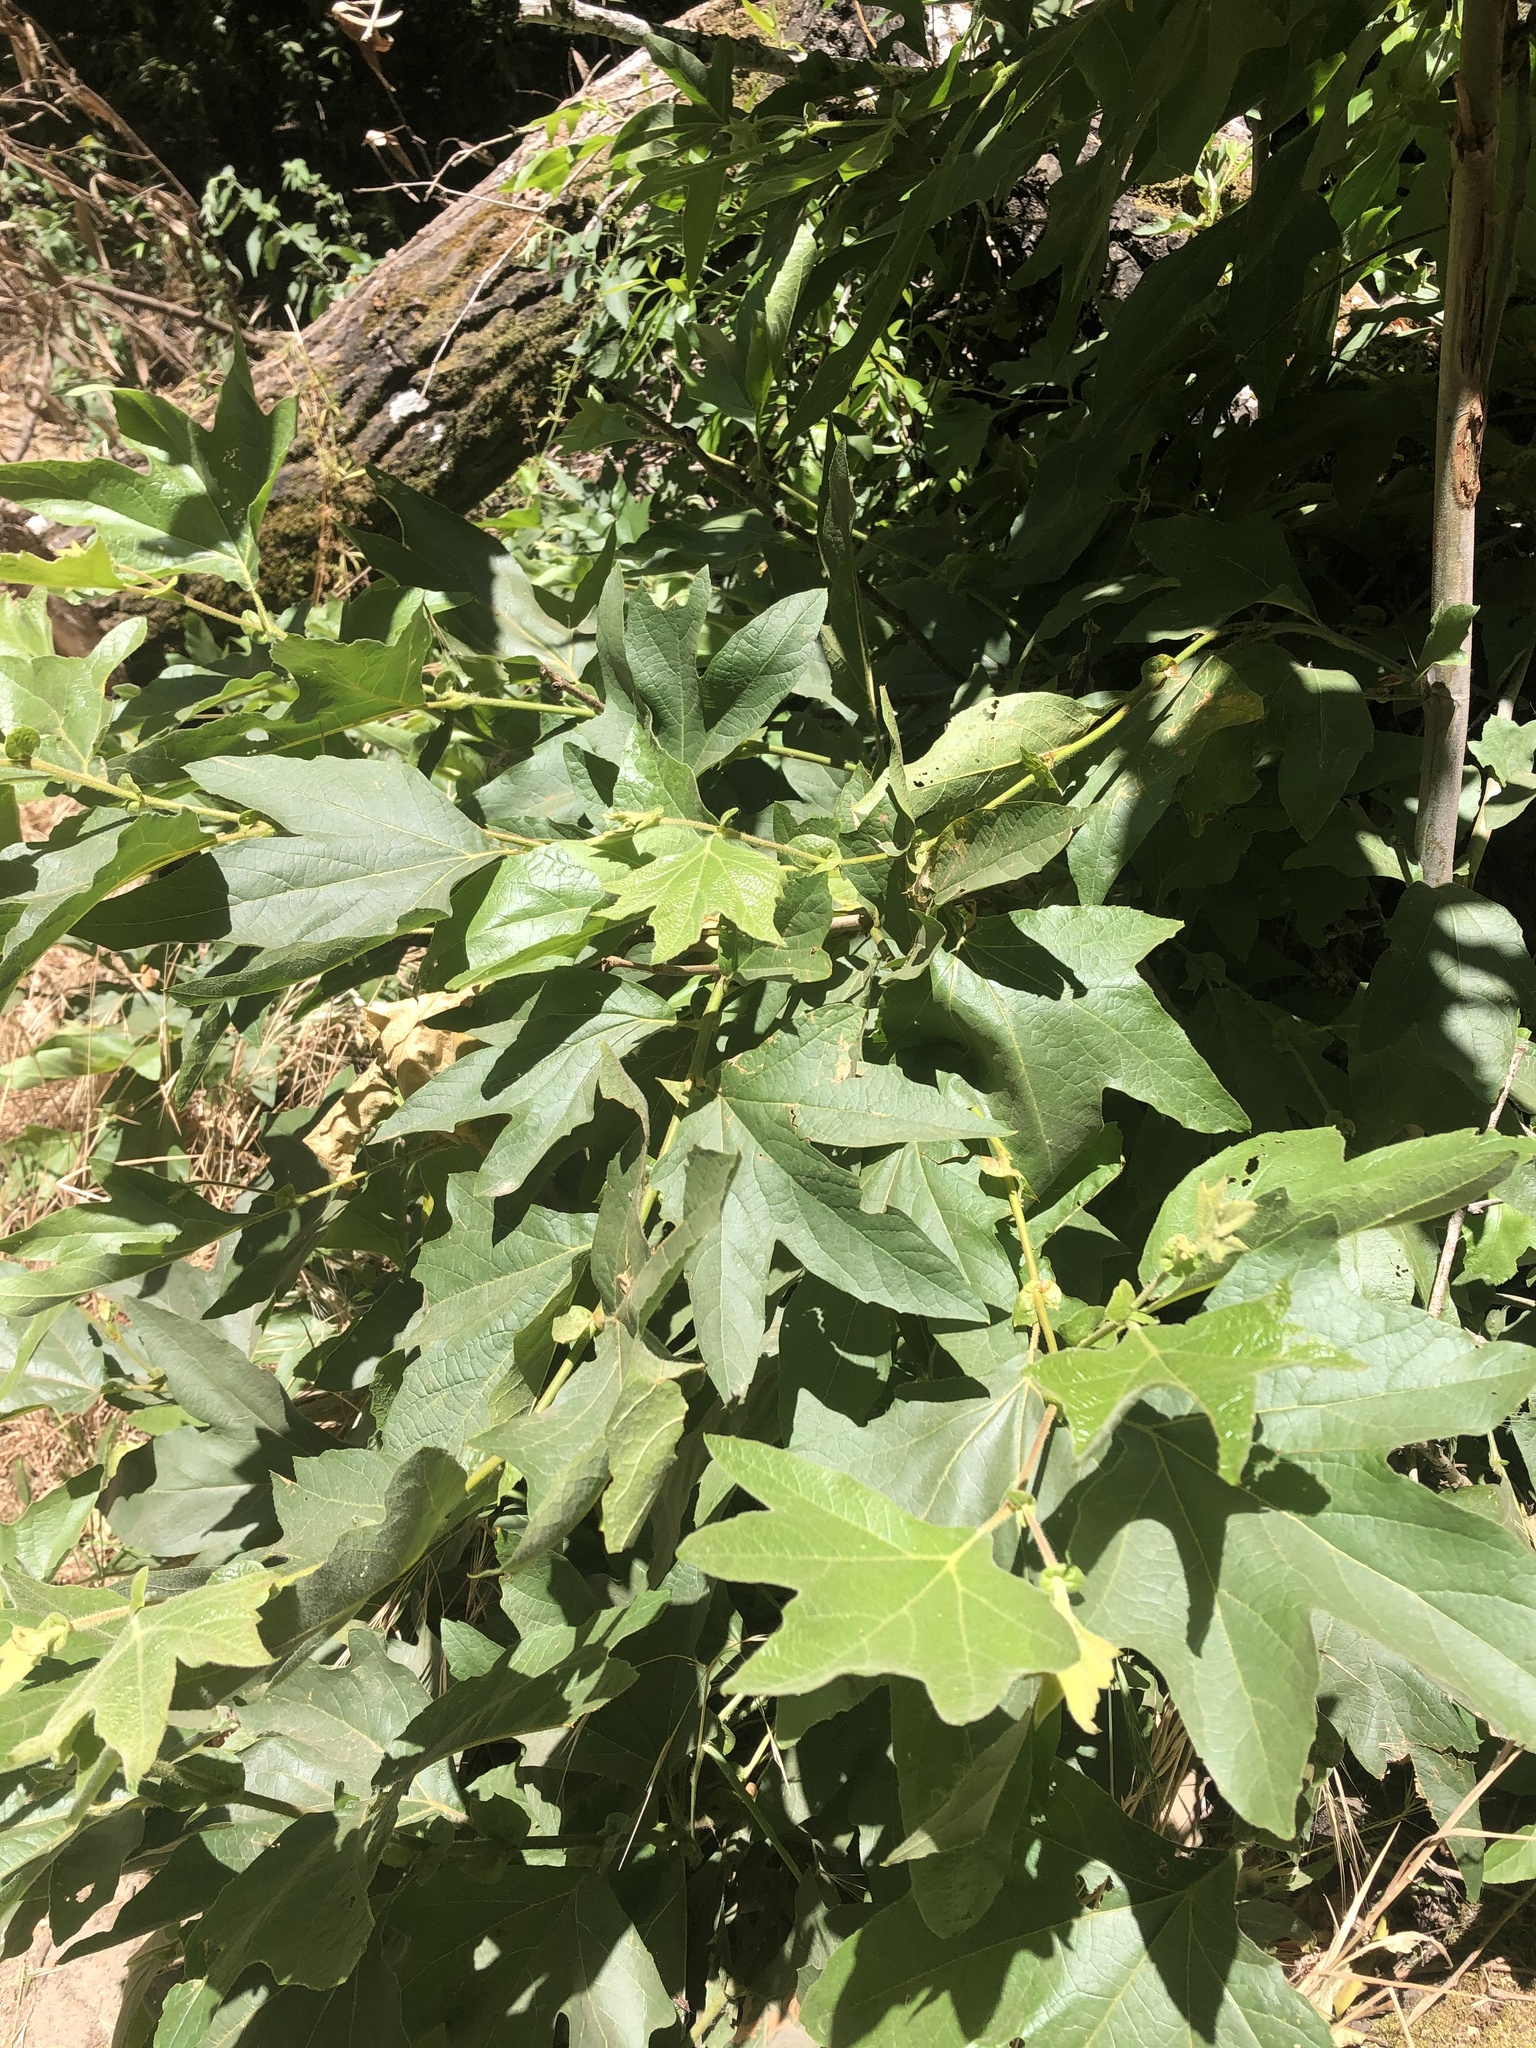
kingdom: Plantae
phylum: Tracheophyta
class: Magnoliopsida
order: Proteales
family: Platanaceae
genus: Platanus
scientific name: Platanus racemosa
